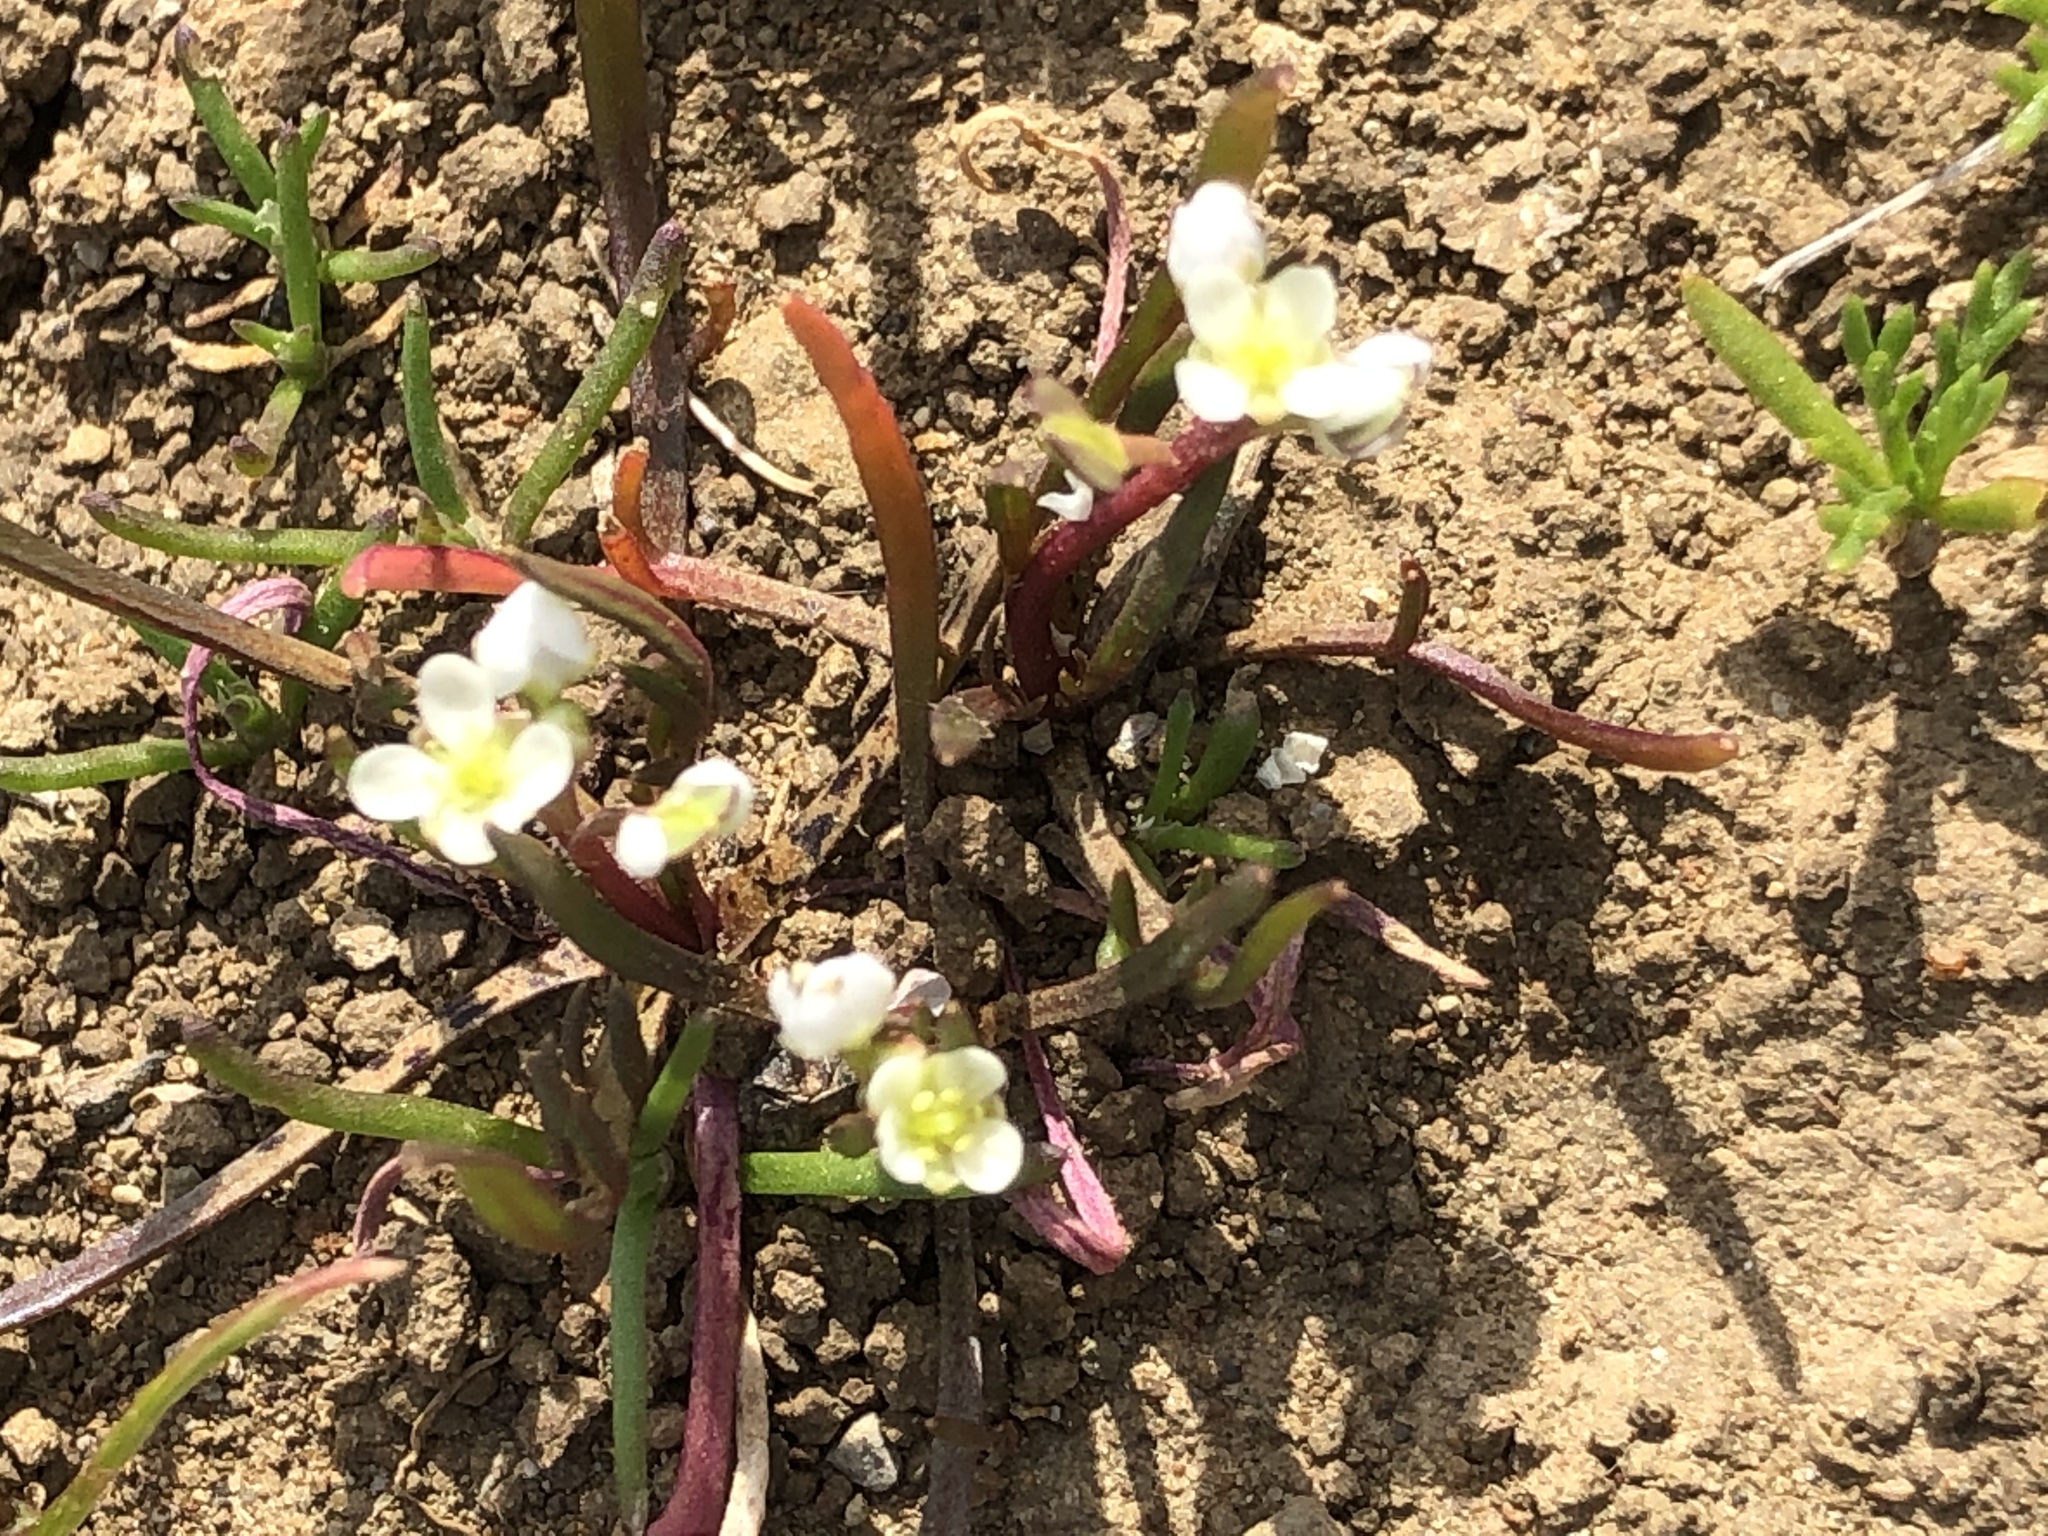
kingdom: Plantae
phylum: Tracheophyta
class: Magnoliopsida
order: Brassicales
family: Brassicaceae
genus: Lepidium
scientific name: Lepidium nitidum
